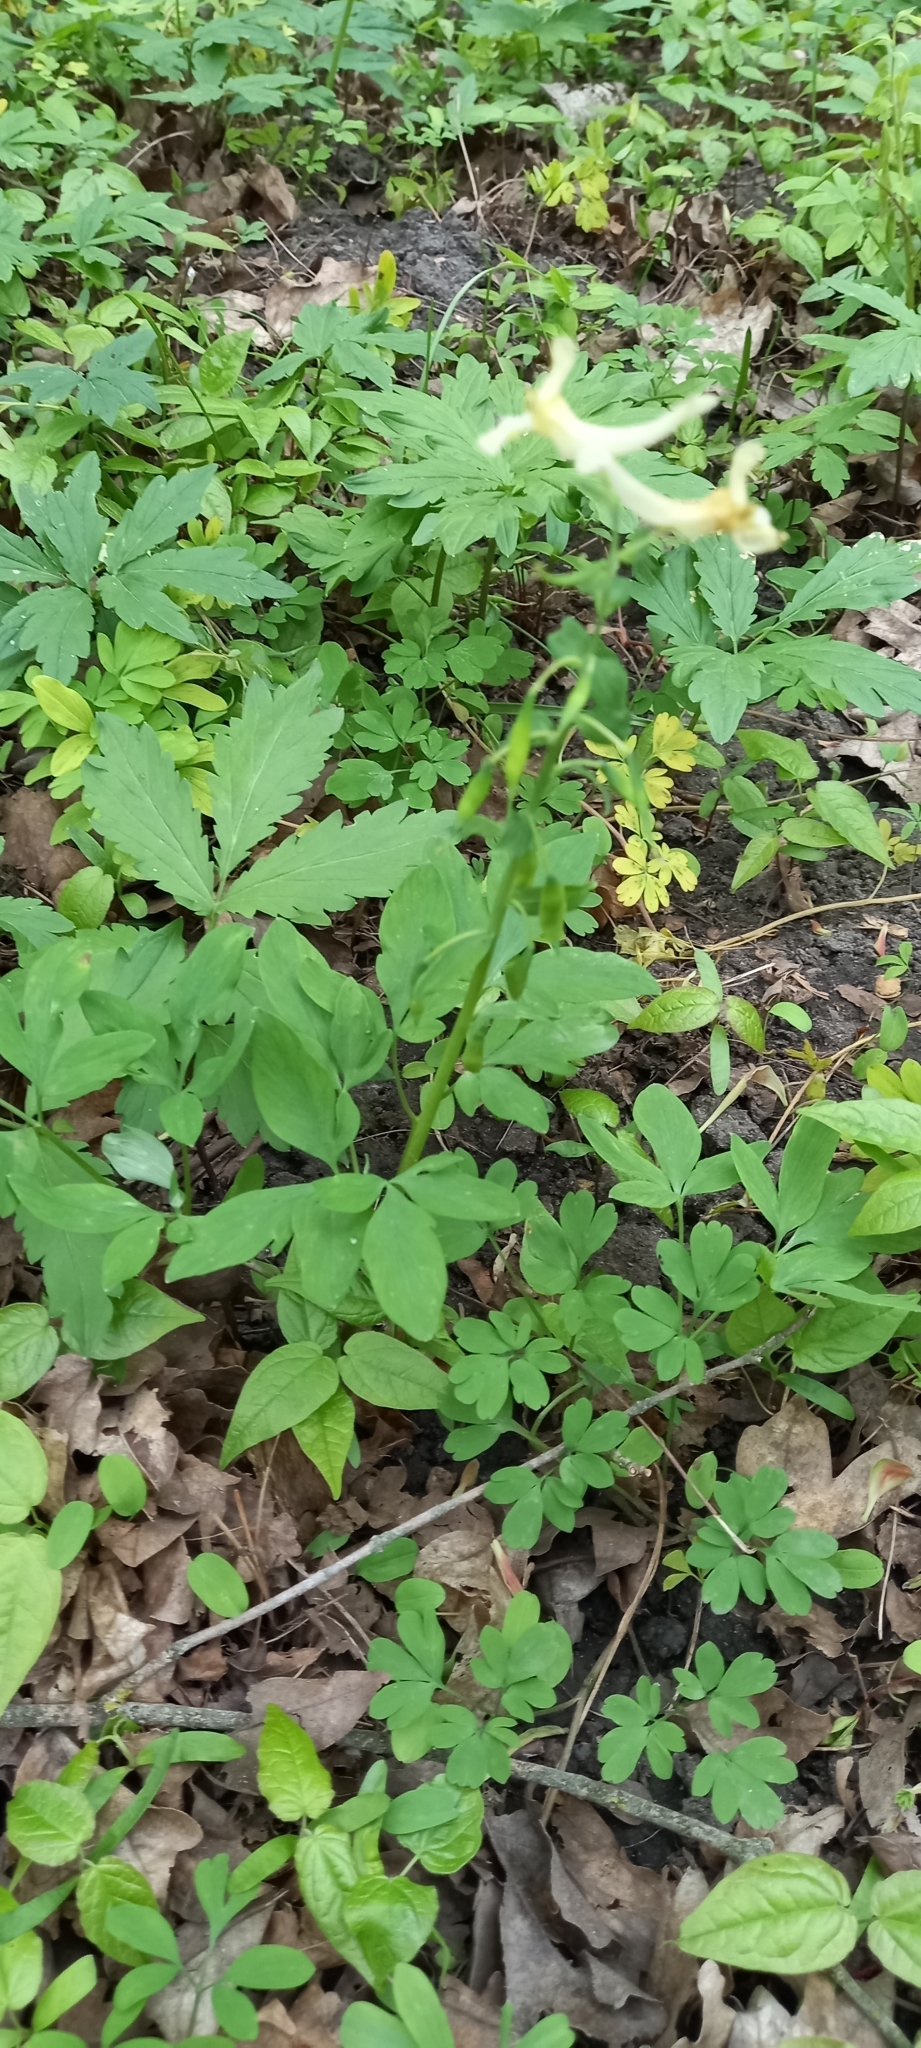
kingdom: Plantae
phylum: Tracheophyta
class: Magnoliopsida
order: Ranunculales
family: Papaveraceae
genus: Corydalis
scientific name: Corydalis cava
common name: Hollowroot
